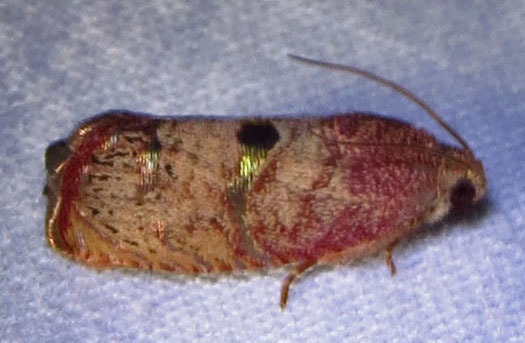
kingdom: Animalia
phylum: Arthropoda
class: Insecta
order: Lepidoptera
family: Tortricidae
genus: Cydia
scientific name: Cydia latiferreana
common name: Filbertworm moth
